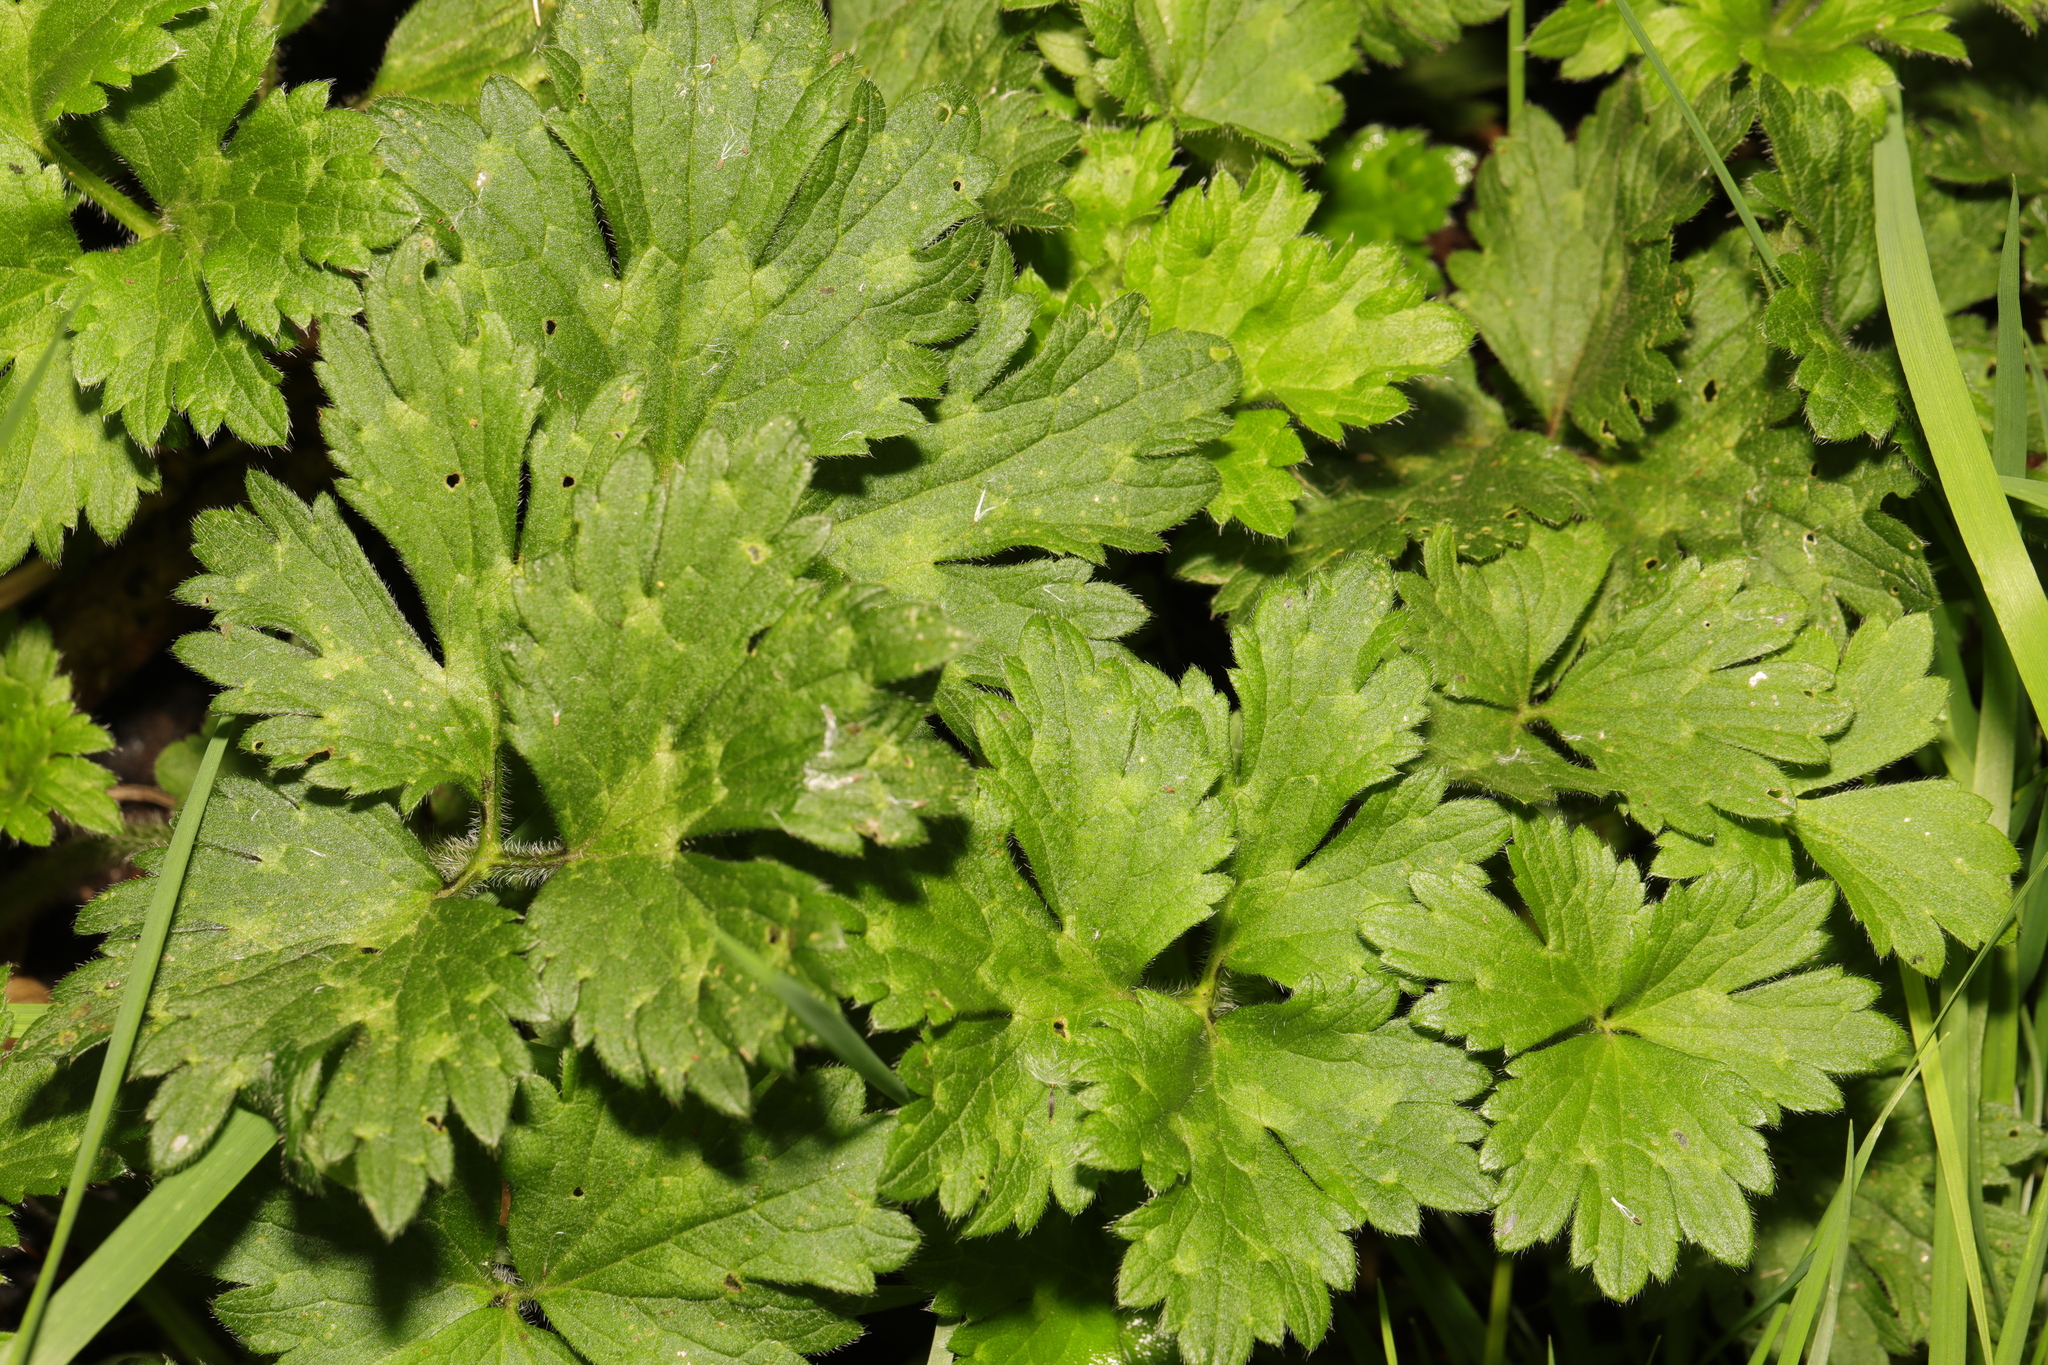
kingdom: Plantae
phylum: Tracheophyta
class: Magnoliopsida
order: Ranunculales
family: Ranunculaceae
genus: Ranunculus
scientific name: Ranunculus repens
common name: Creeping buttercup
